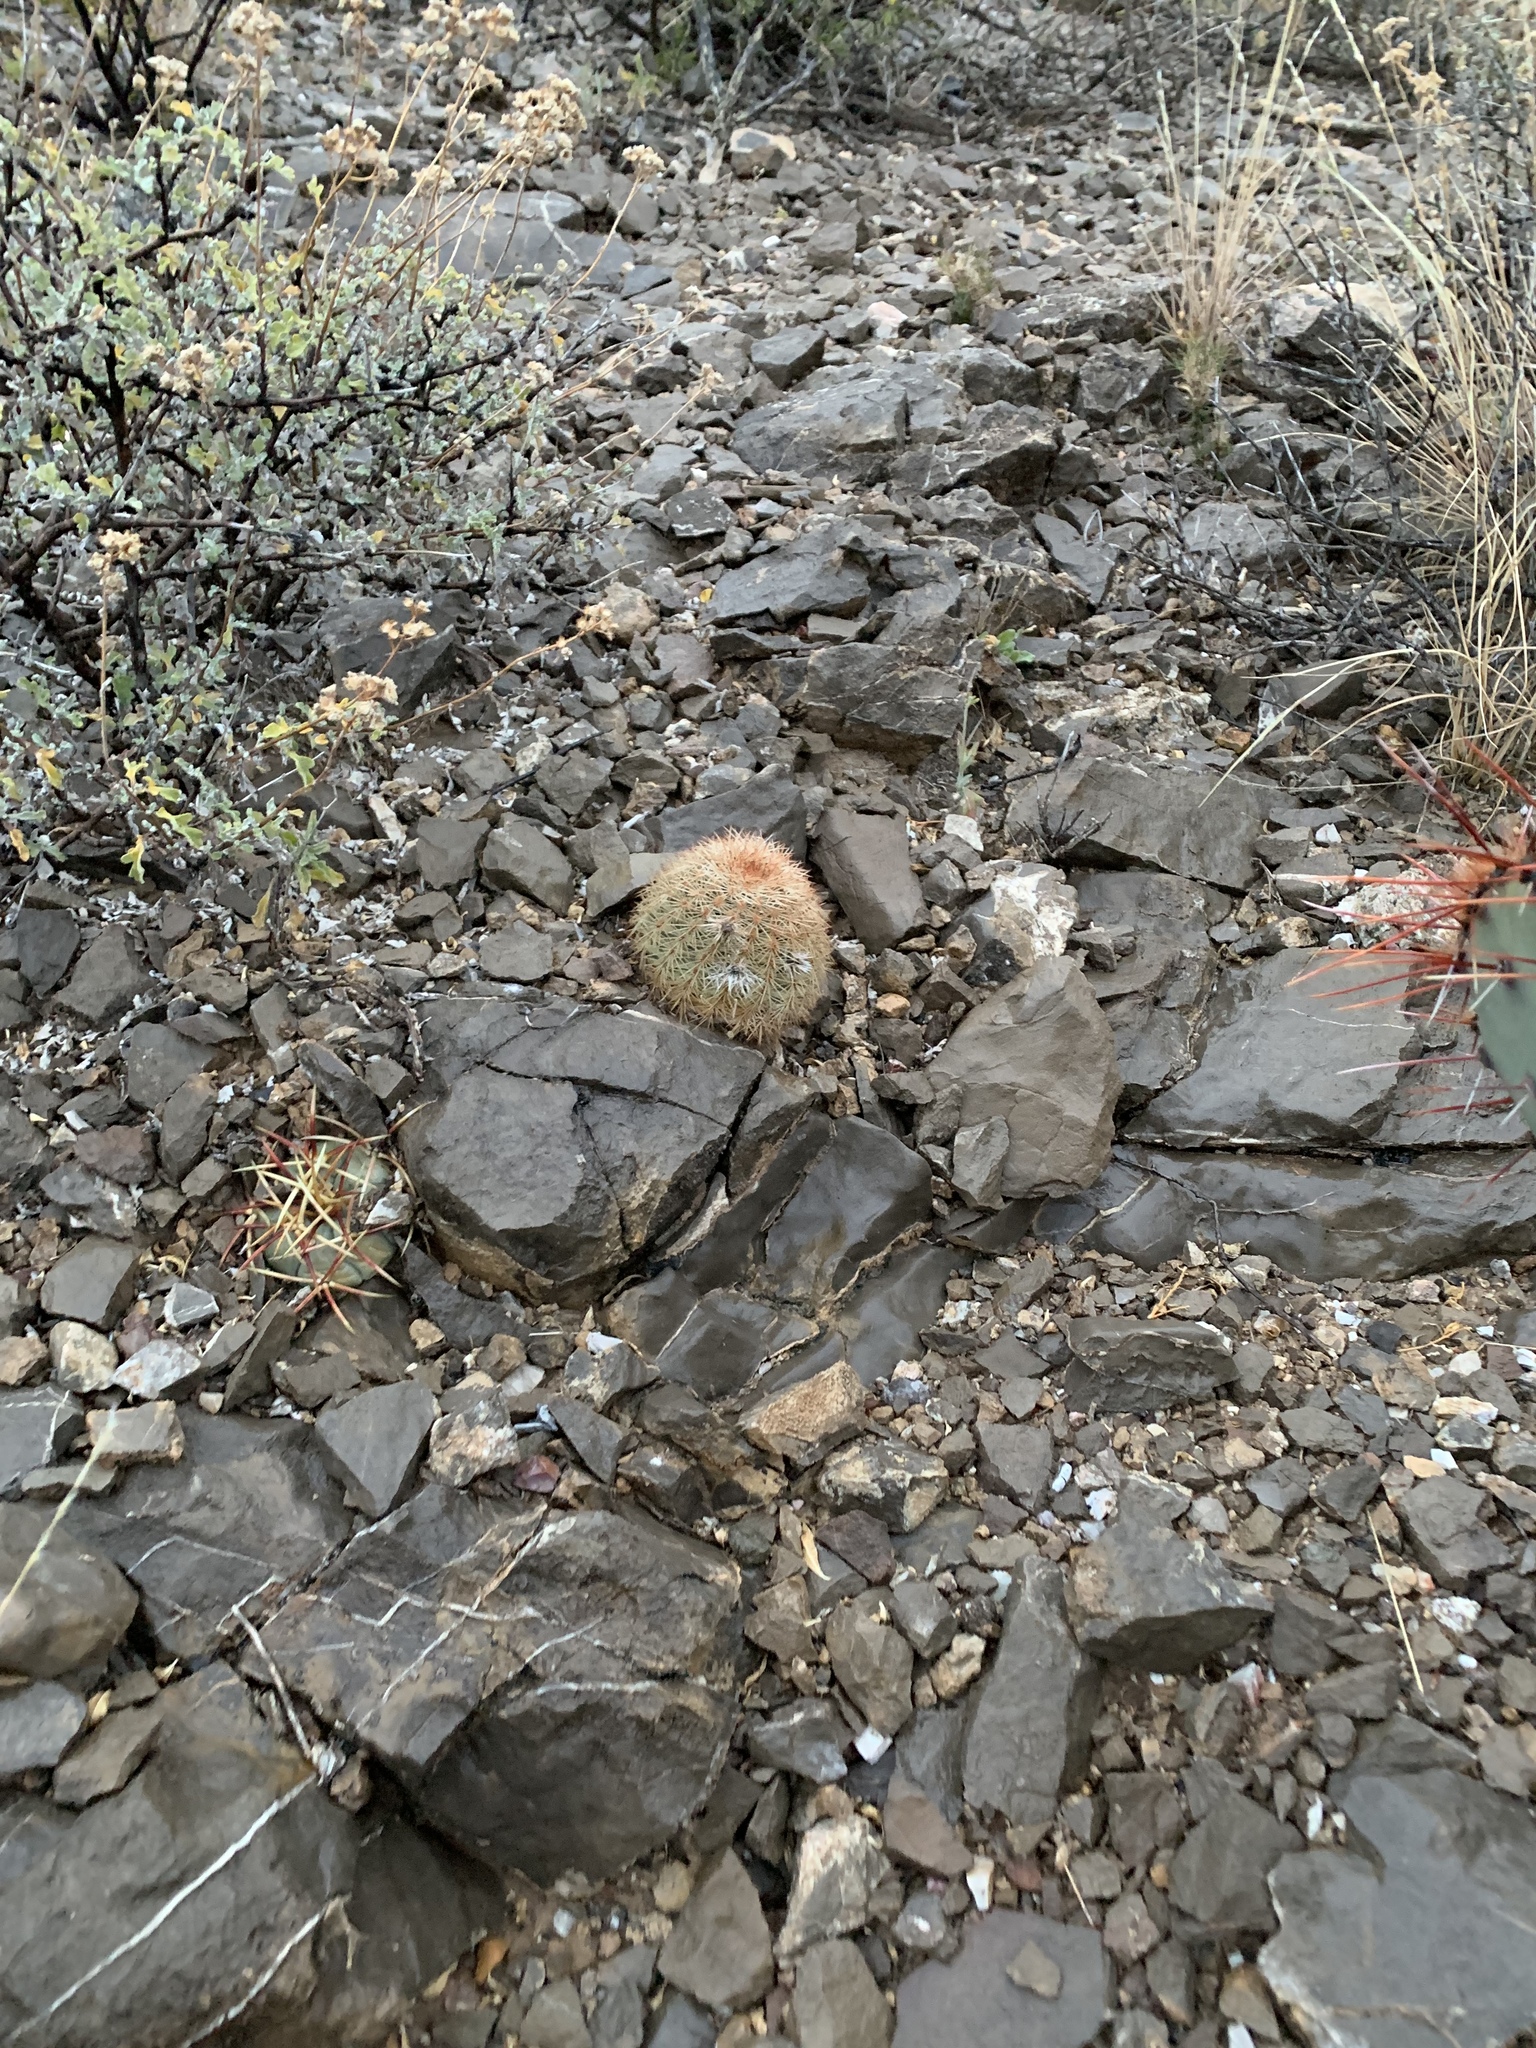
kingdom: Plantae
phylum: Tracheophyta
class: Magnoliopsida
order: Caryophyllales
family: Cactaceae
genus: Echinocereus
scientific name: Echinocereus dasyacanthus
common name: Spiny hedgehog cactus
